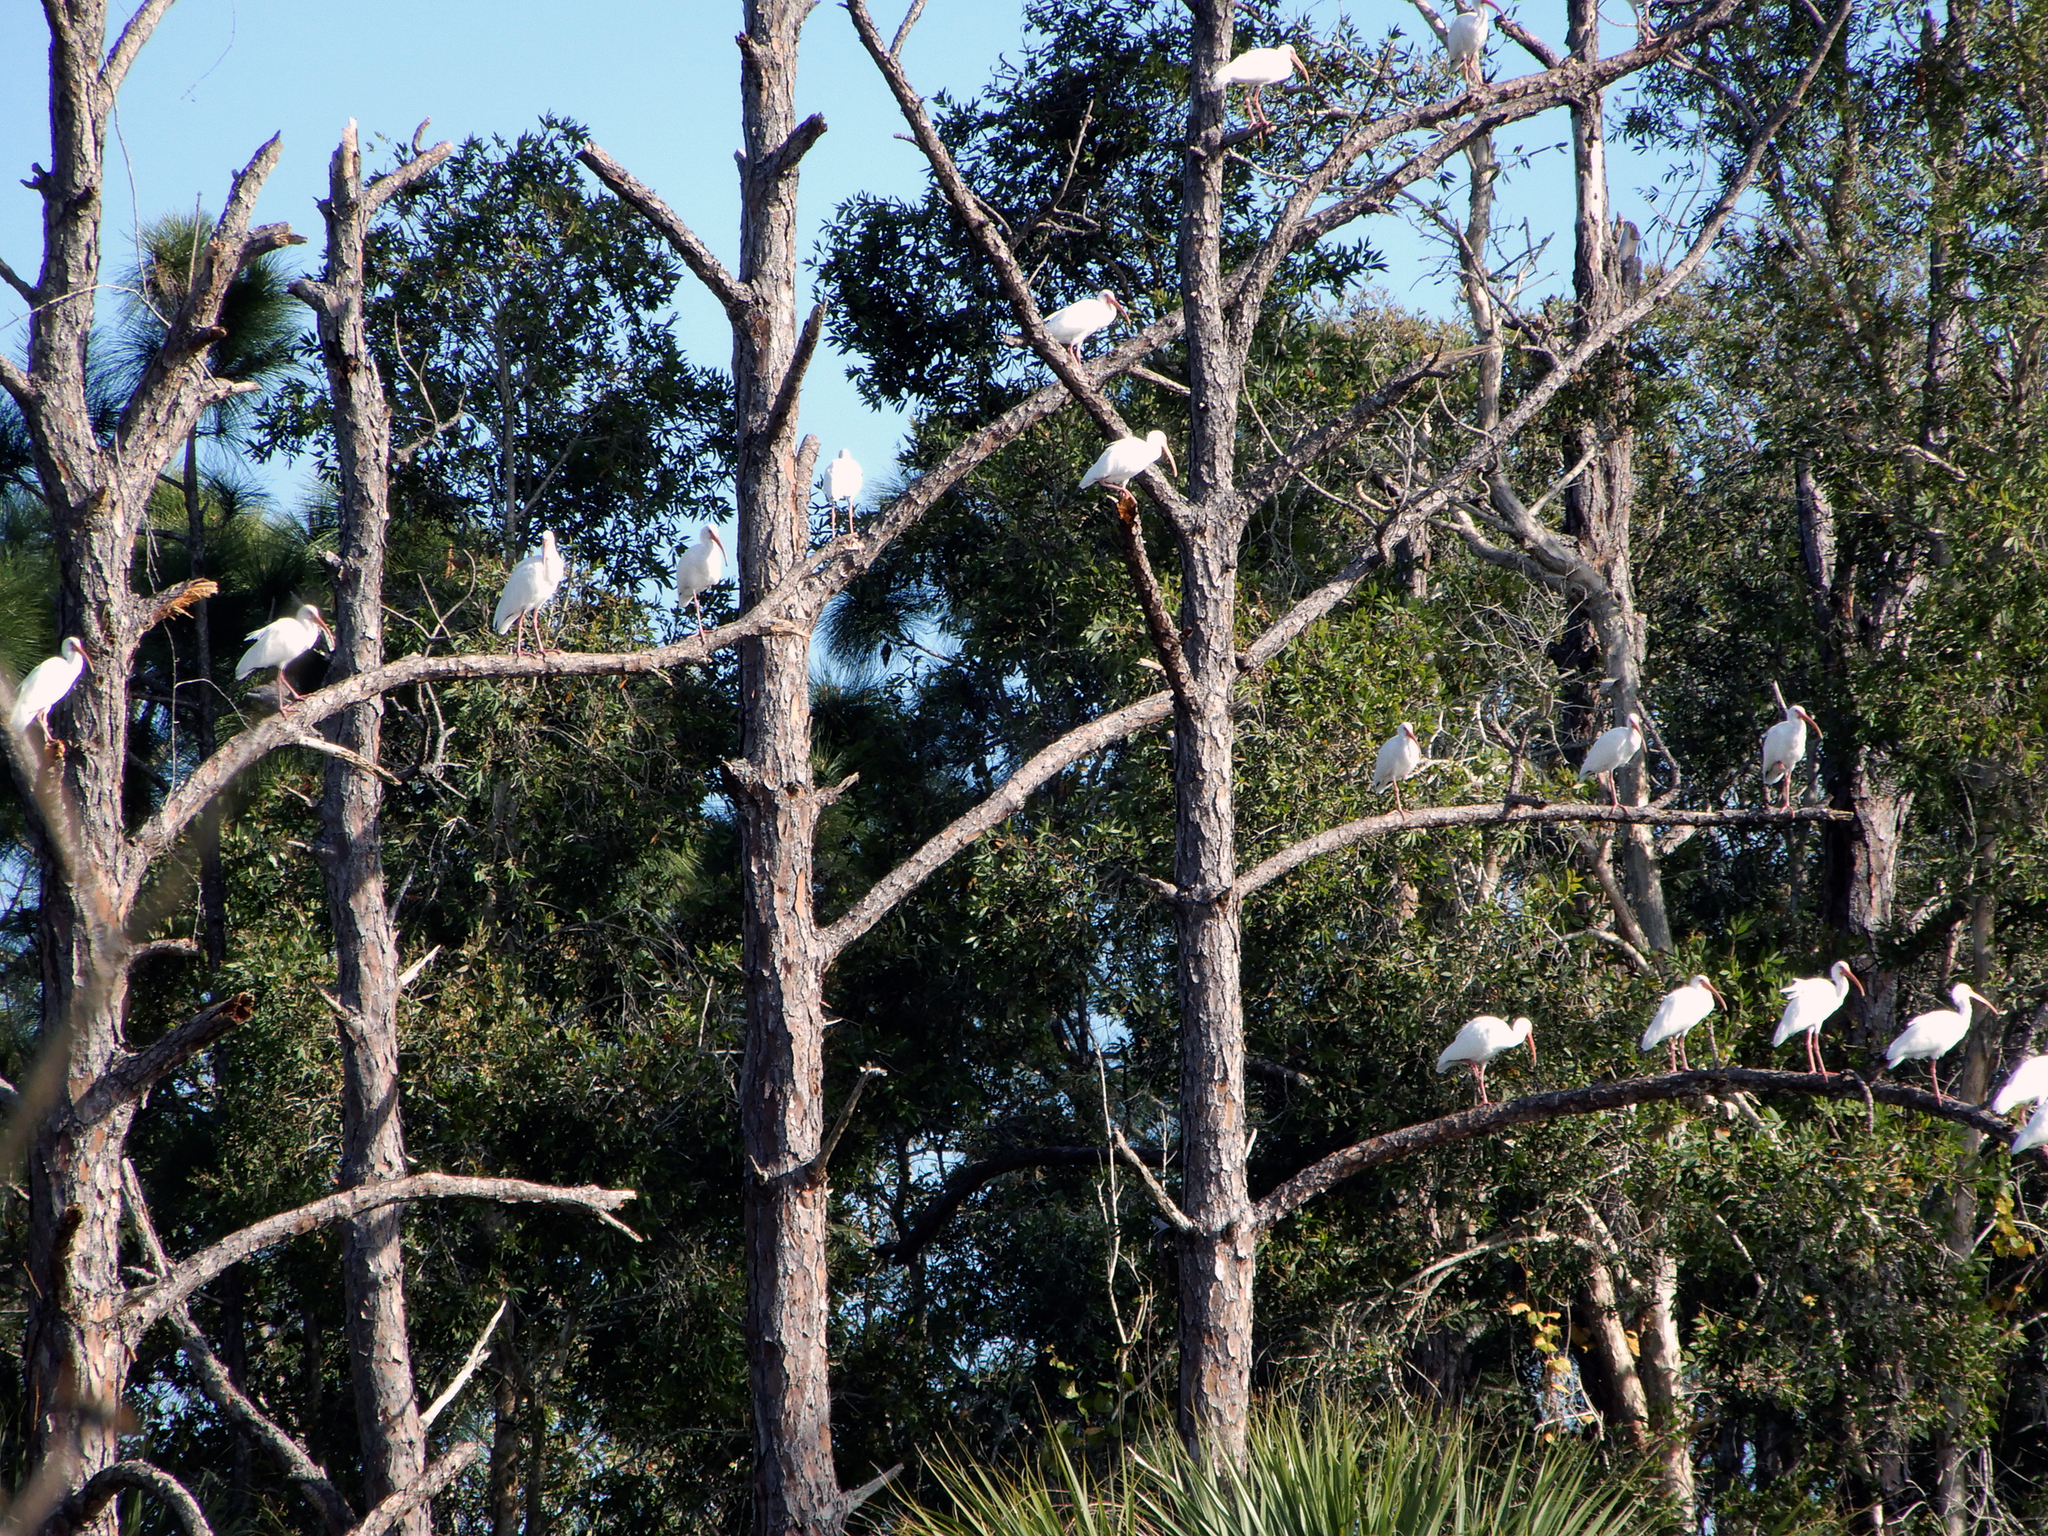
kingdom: Animalia
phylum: Chordata
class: Aves
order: Pelecaniformes
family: Threskiornithidae
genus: Eudocimus
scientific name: Eudocimus albus
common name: White ibis
